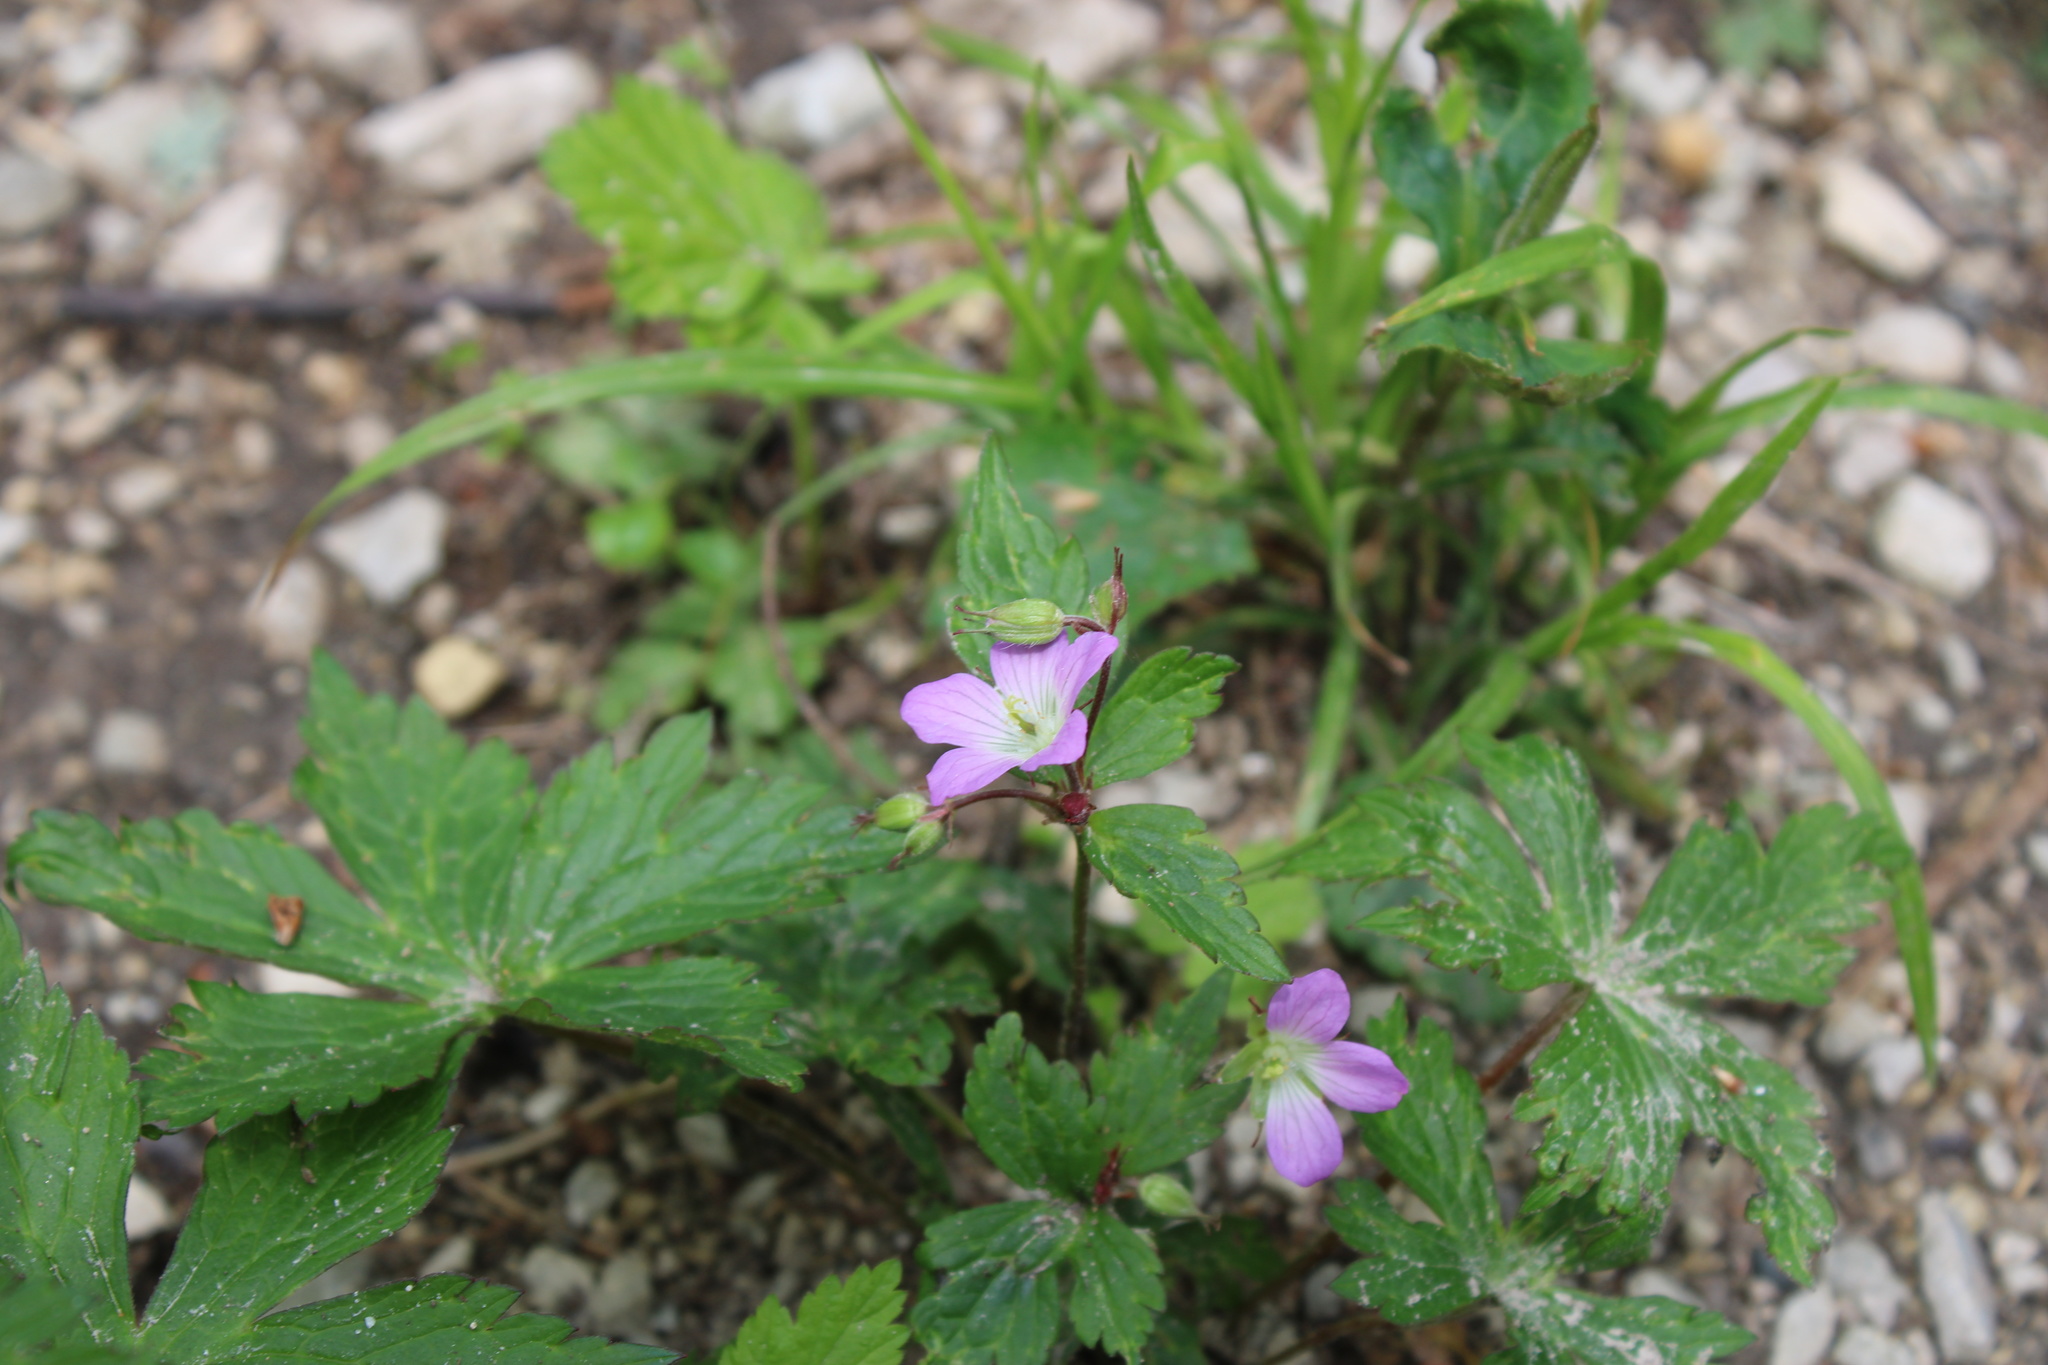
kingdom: Plantae
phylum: Tracheophyta
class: Magnoliopsida
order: Geraniales
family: Geraniaceae
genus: Geranium
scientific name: Geranium maculatum
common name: Spotted geranium
